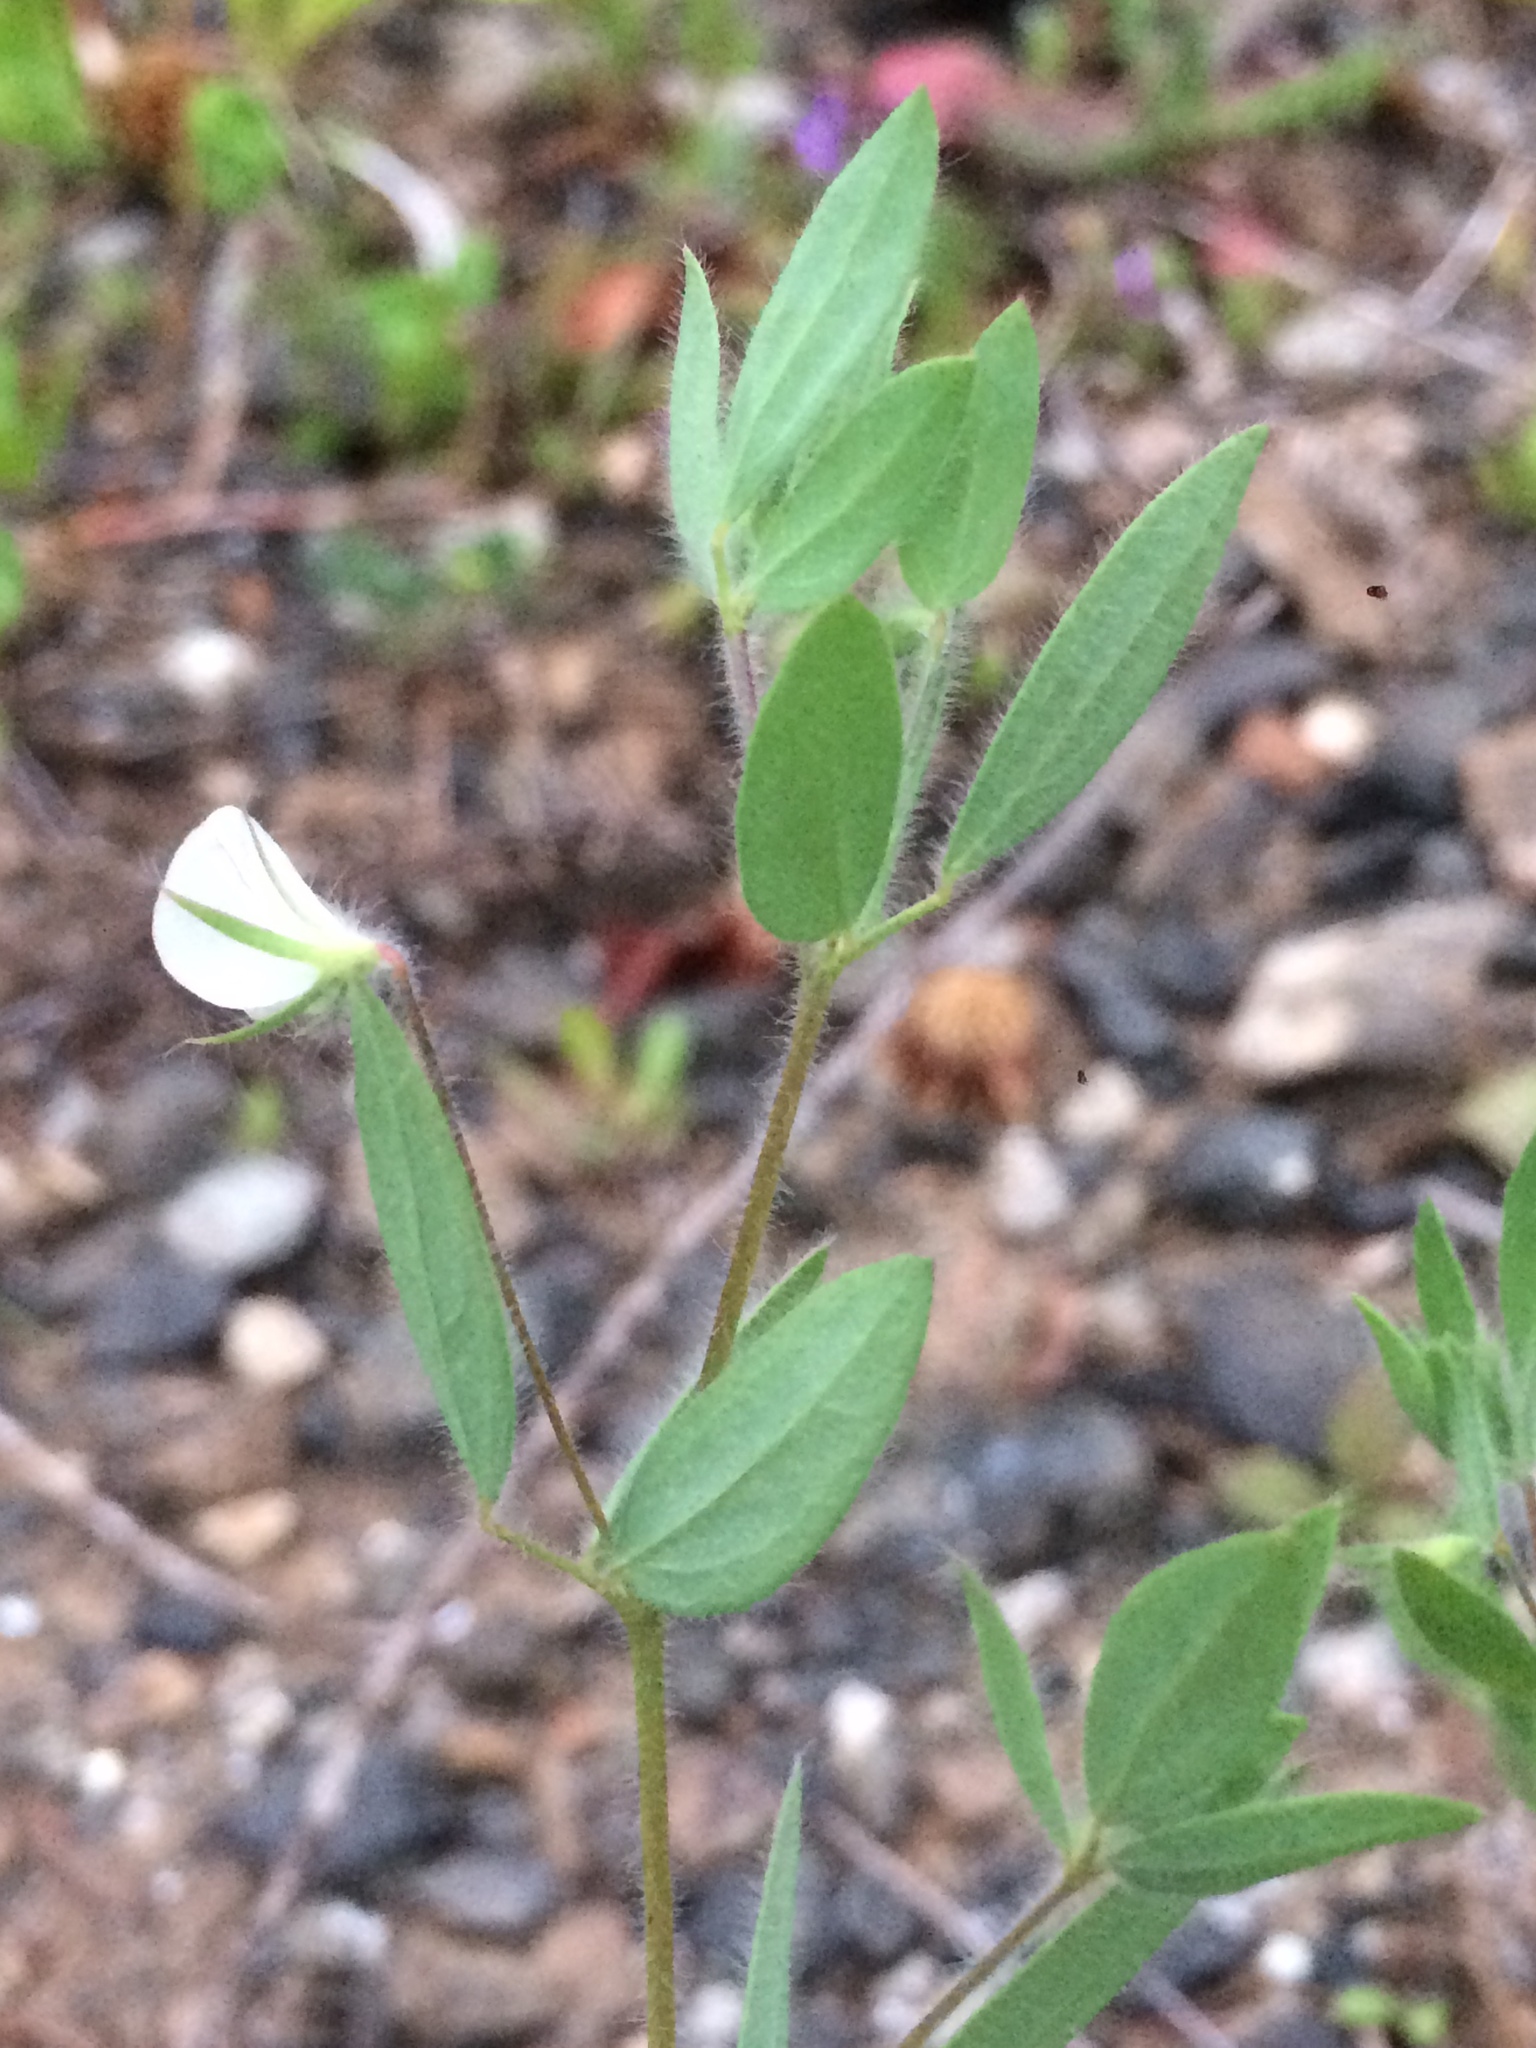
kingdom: Plantae
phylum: Tracheophyta
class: Magnoliopsida
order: Fabales
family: Fabaceae
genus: Acmispon
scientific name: Acmispon americanus
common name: American bird's-foot trefoil
